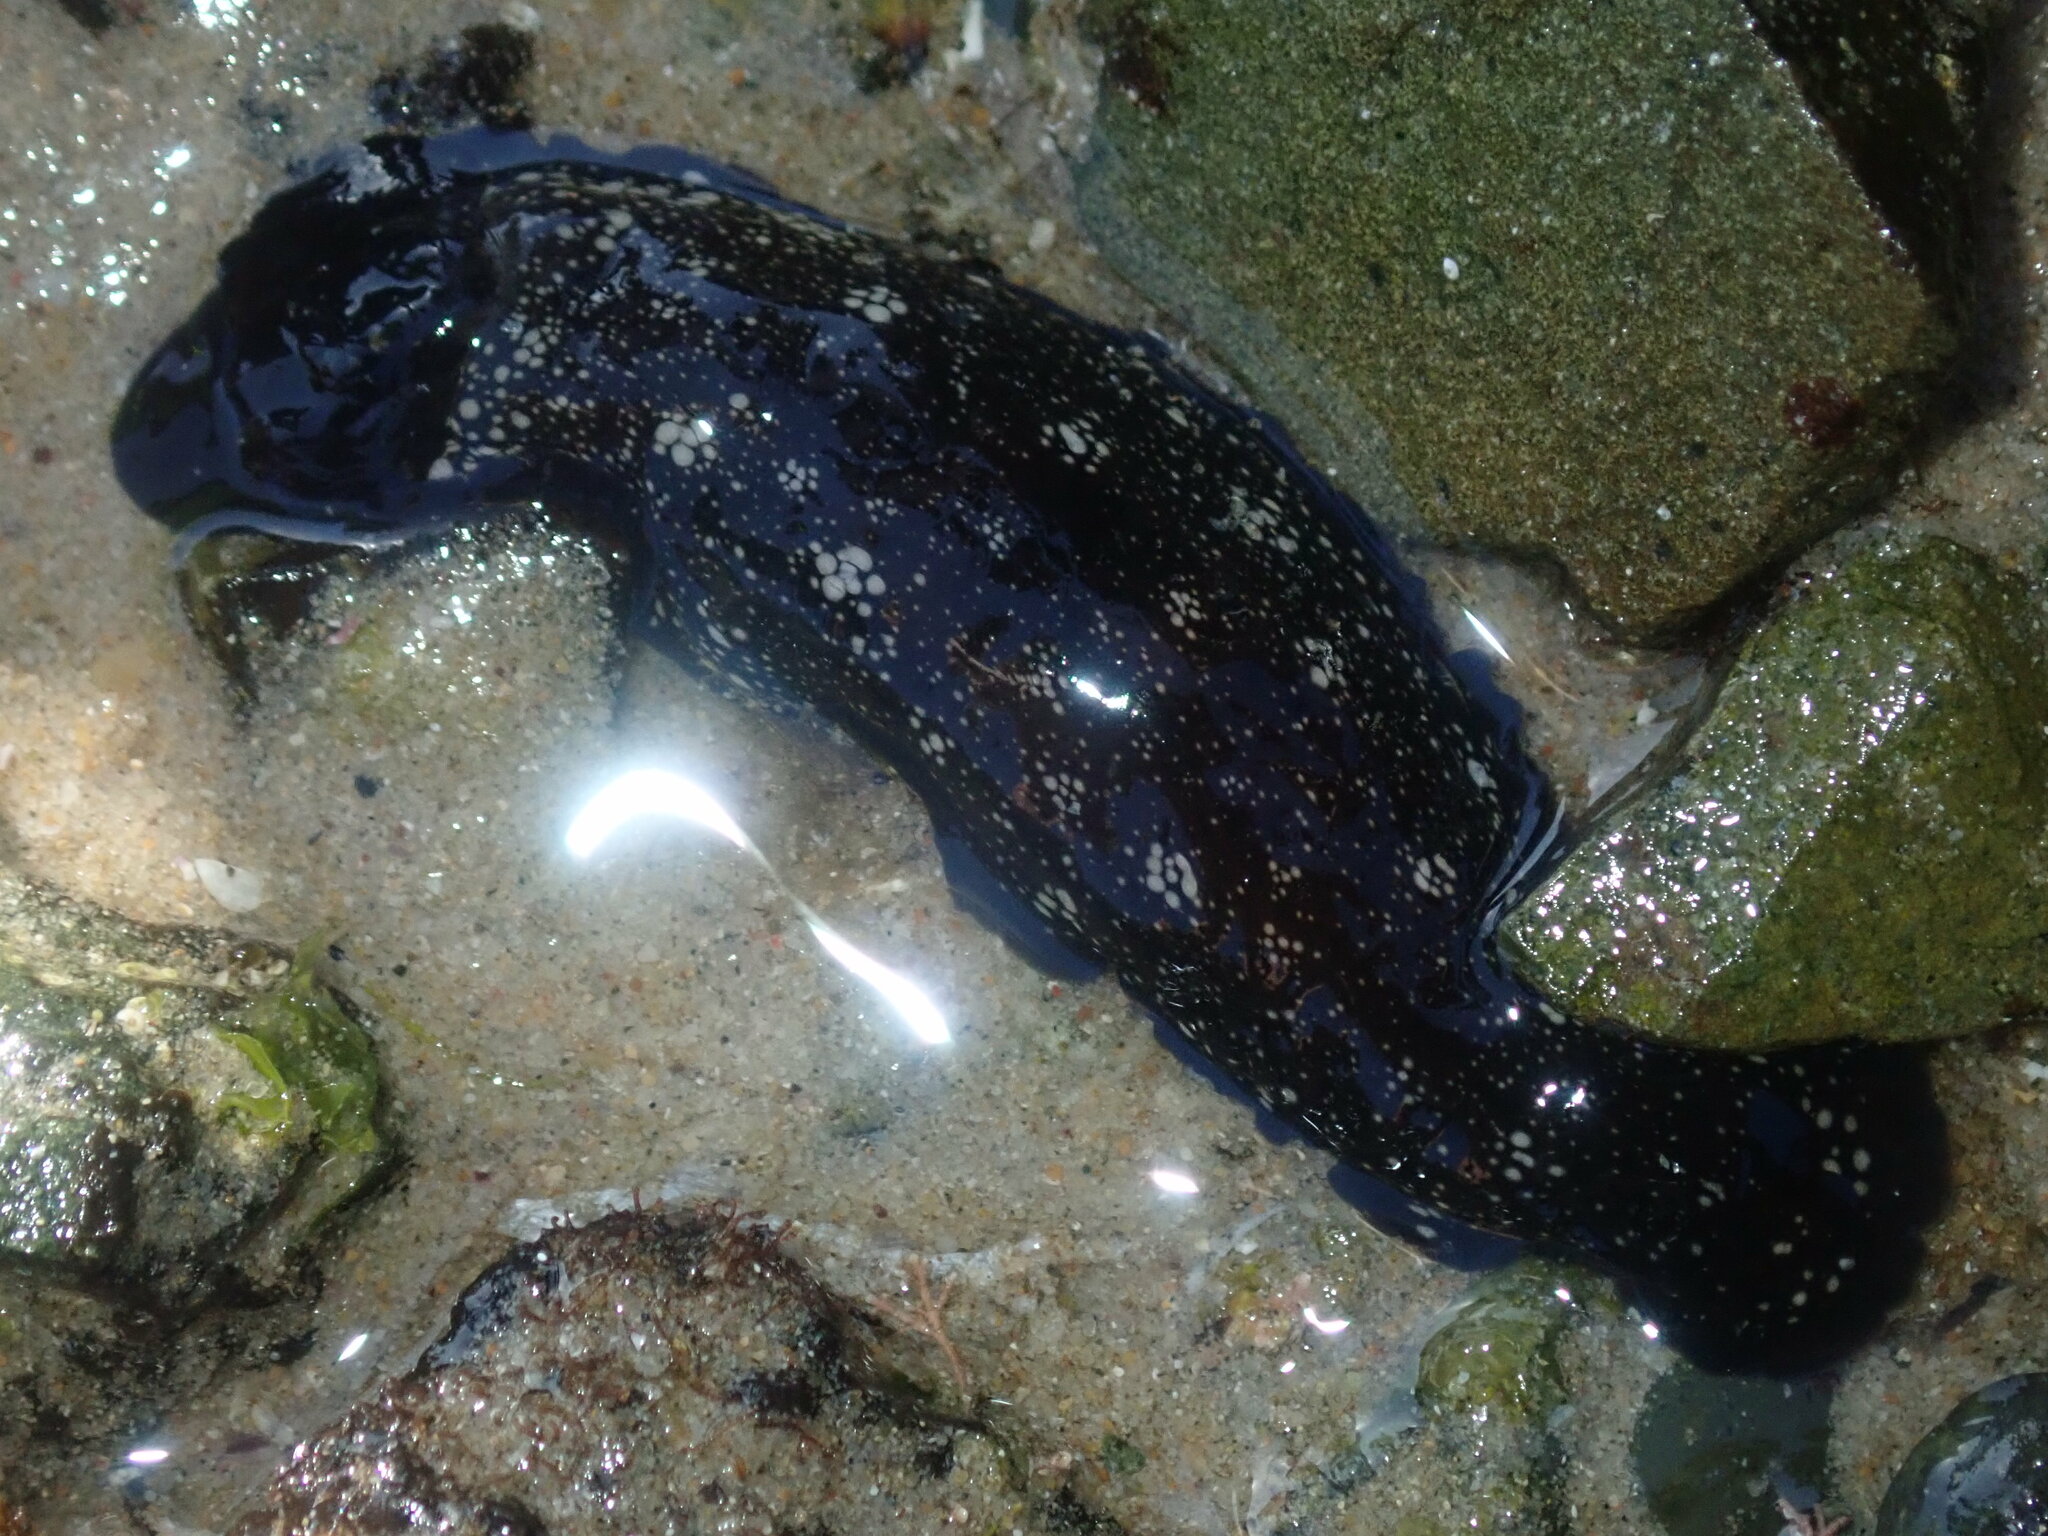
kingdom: Animalia
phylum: Mollusca
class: Gastropoda
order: Nudibranchia
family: Dendrodorididae
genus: Dendrodoris
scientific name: Dendrodoris nigra
